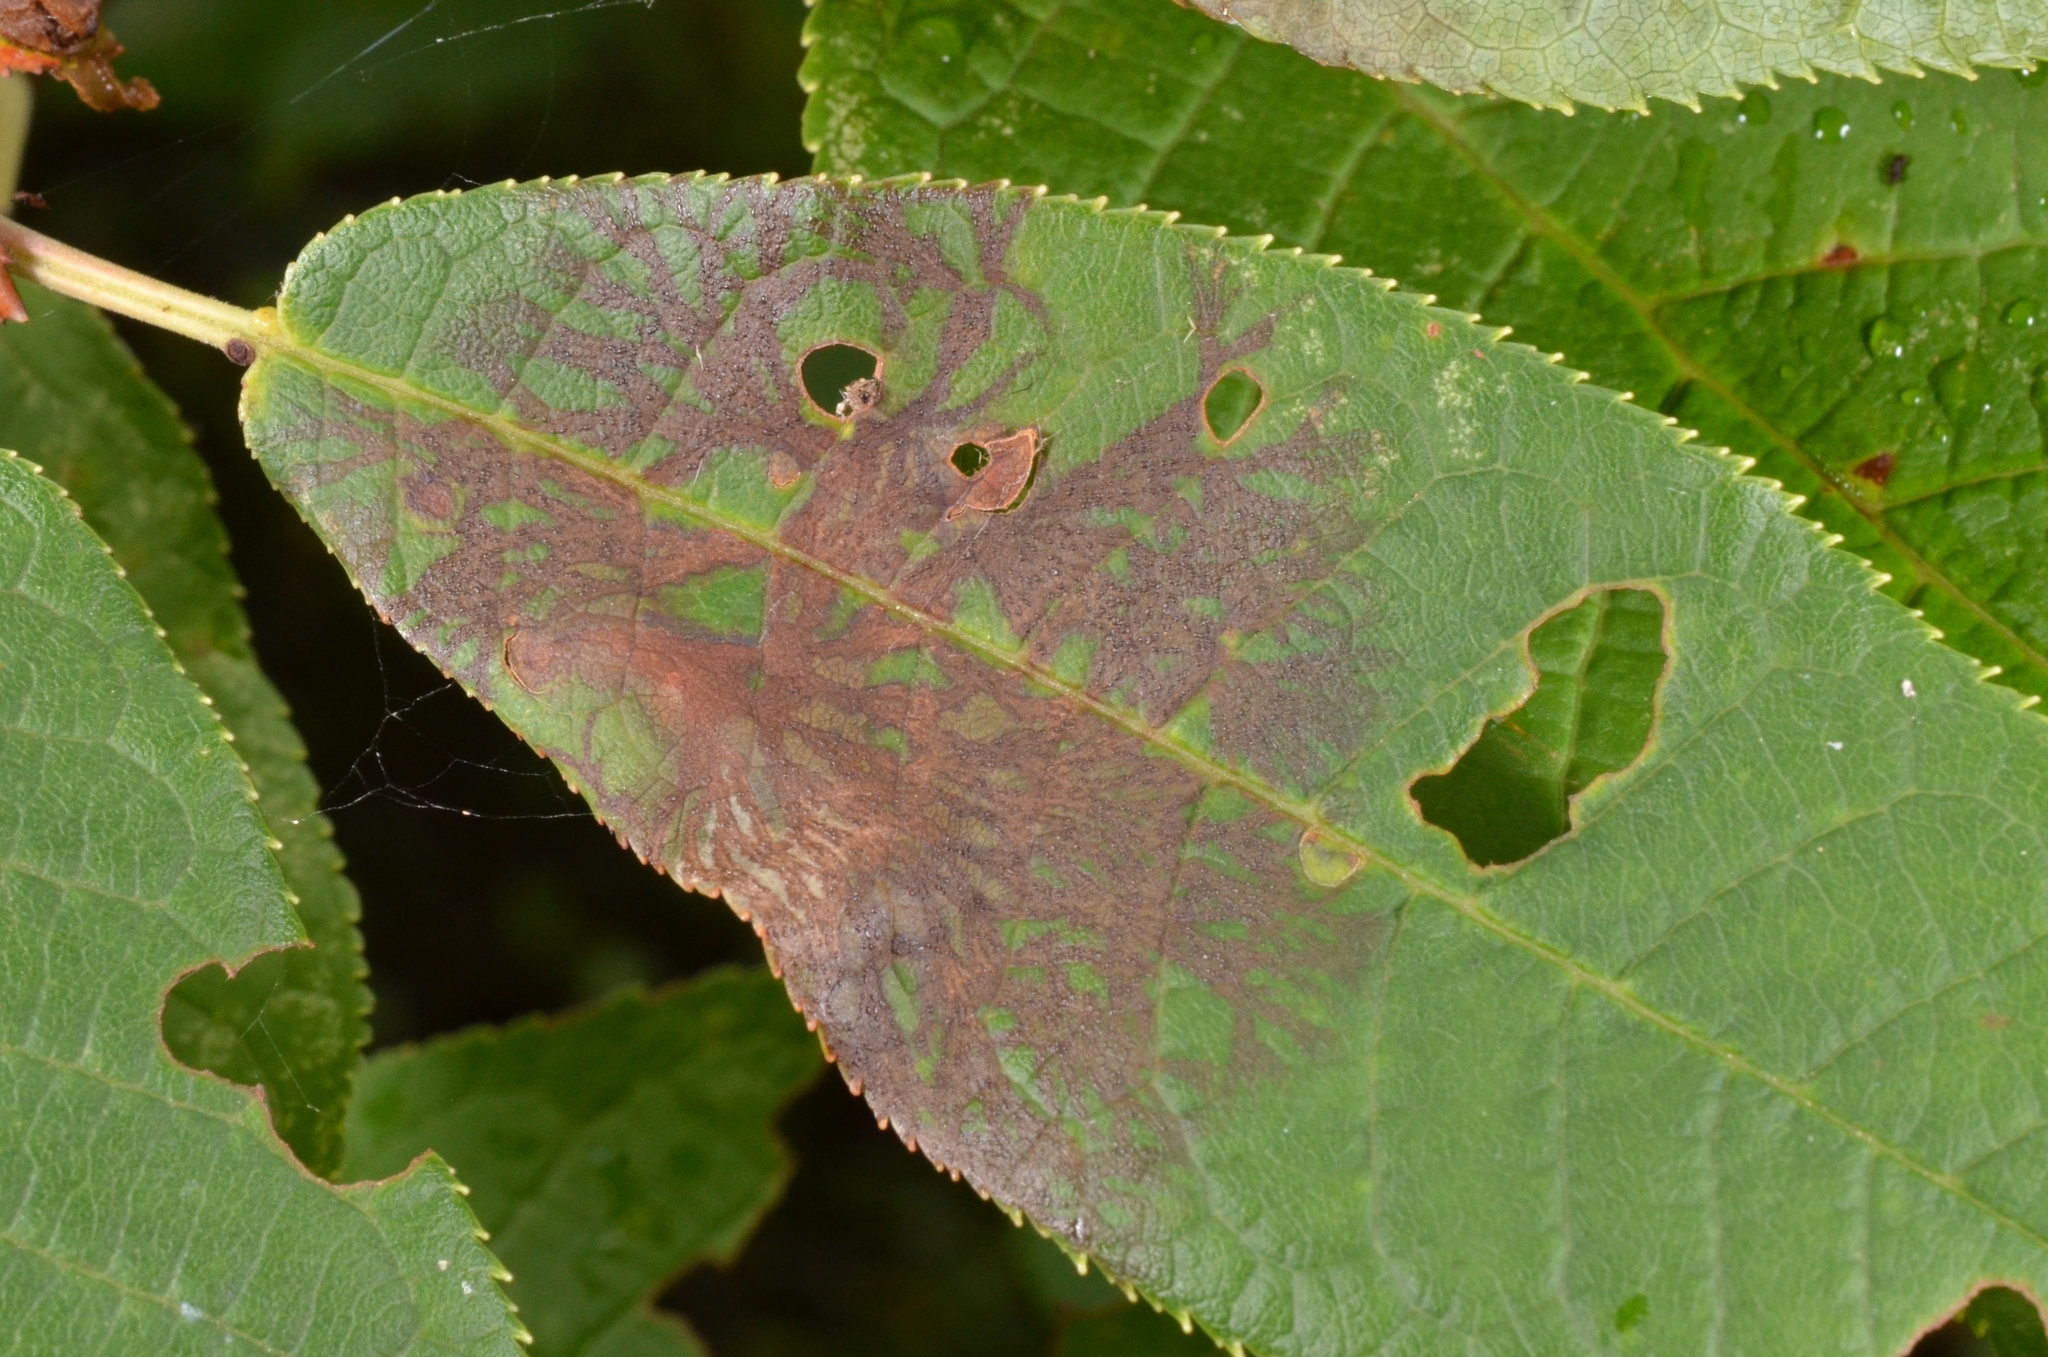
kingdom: Fungi
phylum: Ascomycota
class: Sordariomycetes
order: Diaporthales
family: Gnomoniaceae
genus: Asteroma
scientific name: Asteroma padi
